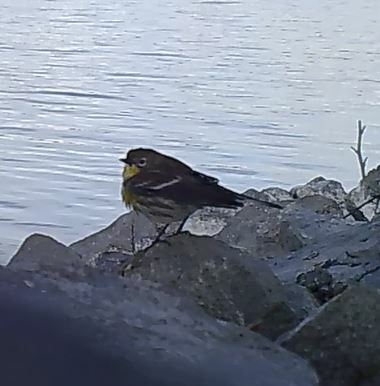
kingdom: Animalia
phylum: Chordata
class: Aves
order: Passeriformes
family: Parulidae
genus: Setophaga
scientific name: Setophaga auduboni
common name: Audubon's warbler
